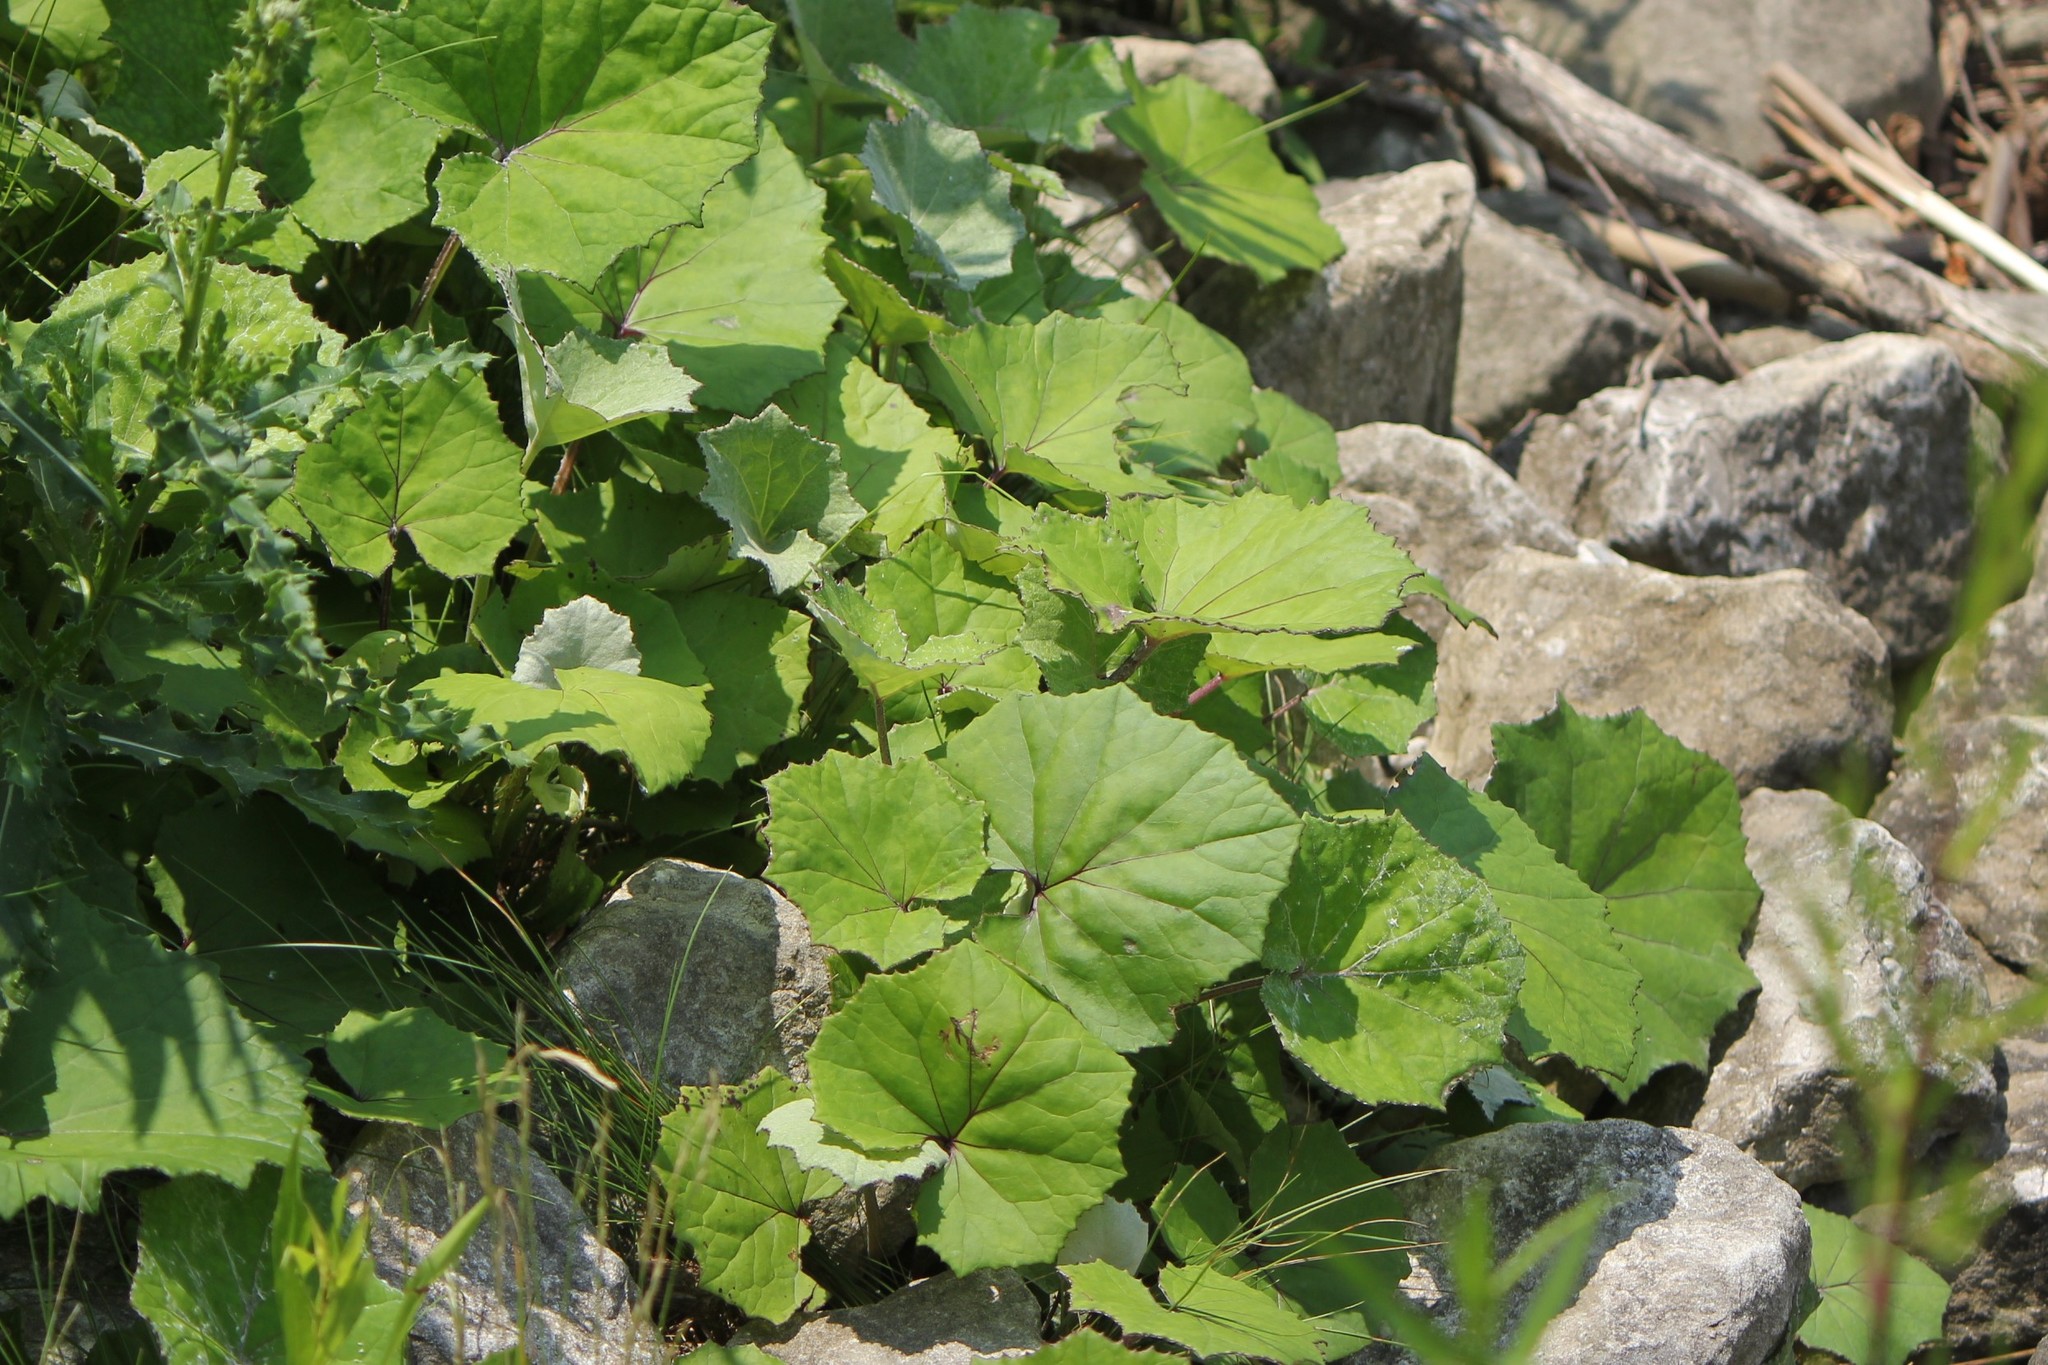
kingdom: Plantae
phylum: Tracheophyta
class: Magnoliopsida
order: Asterales
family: Asteraceae
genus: Tussilago
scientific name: Tussilago farfara
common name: Coltsfoot
